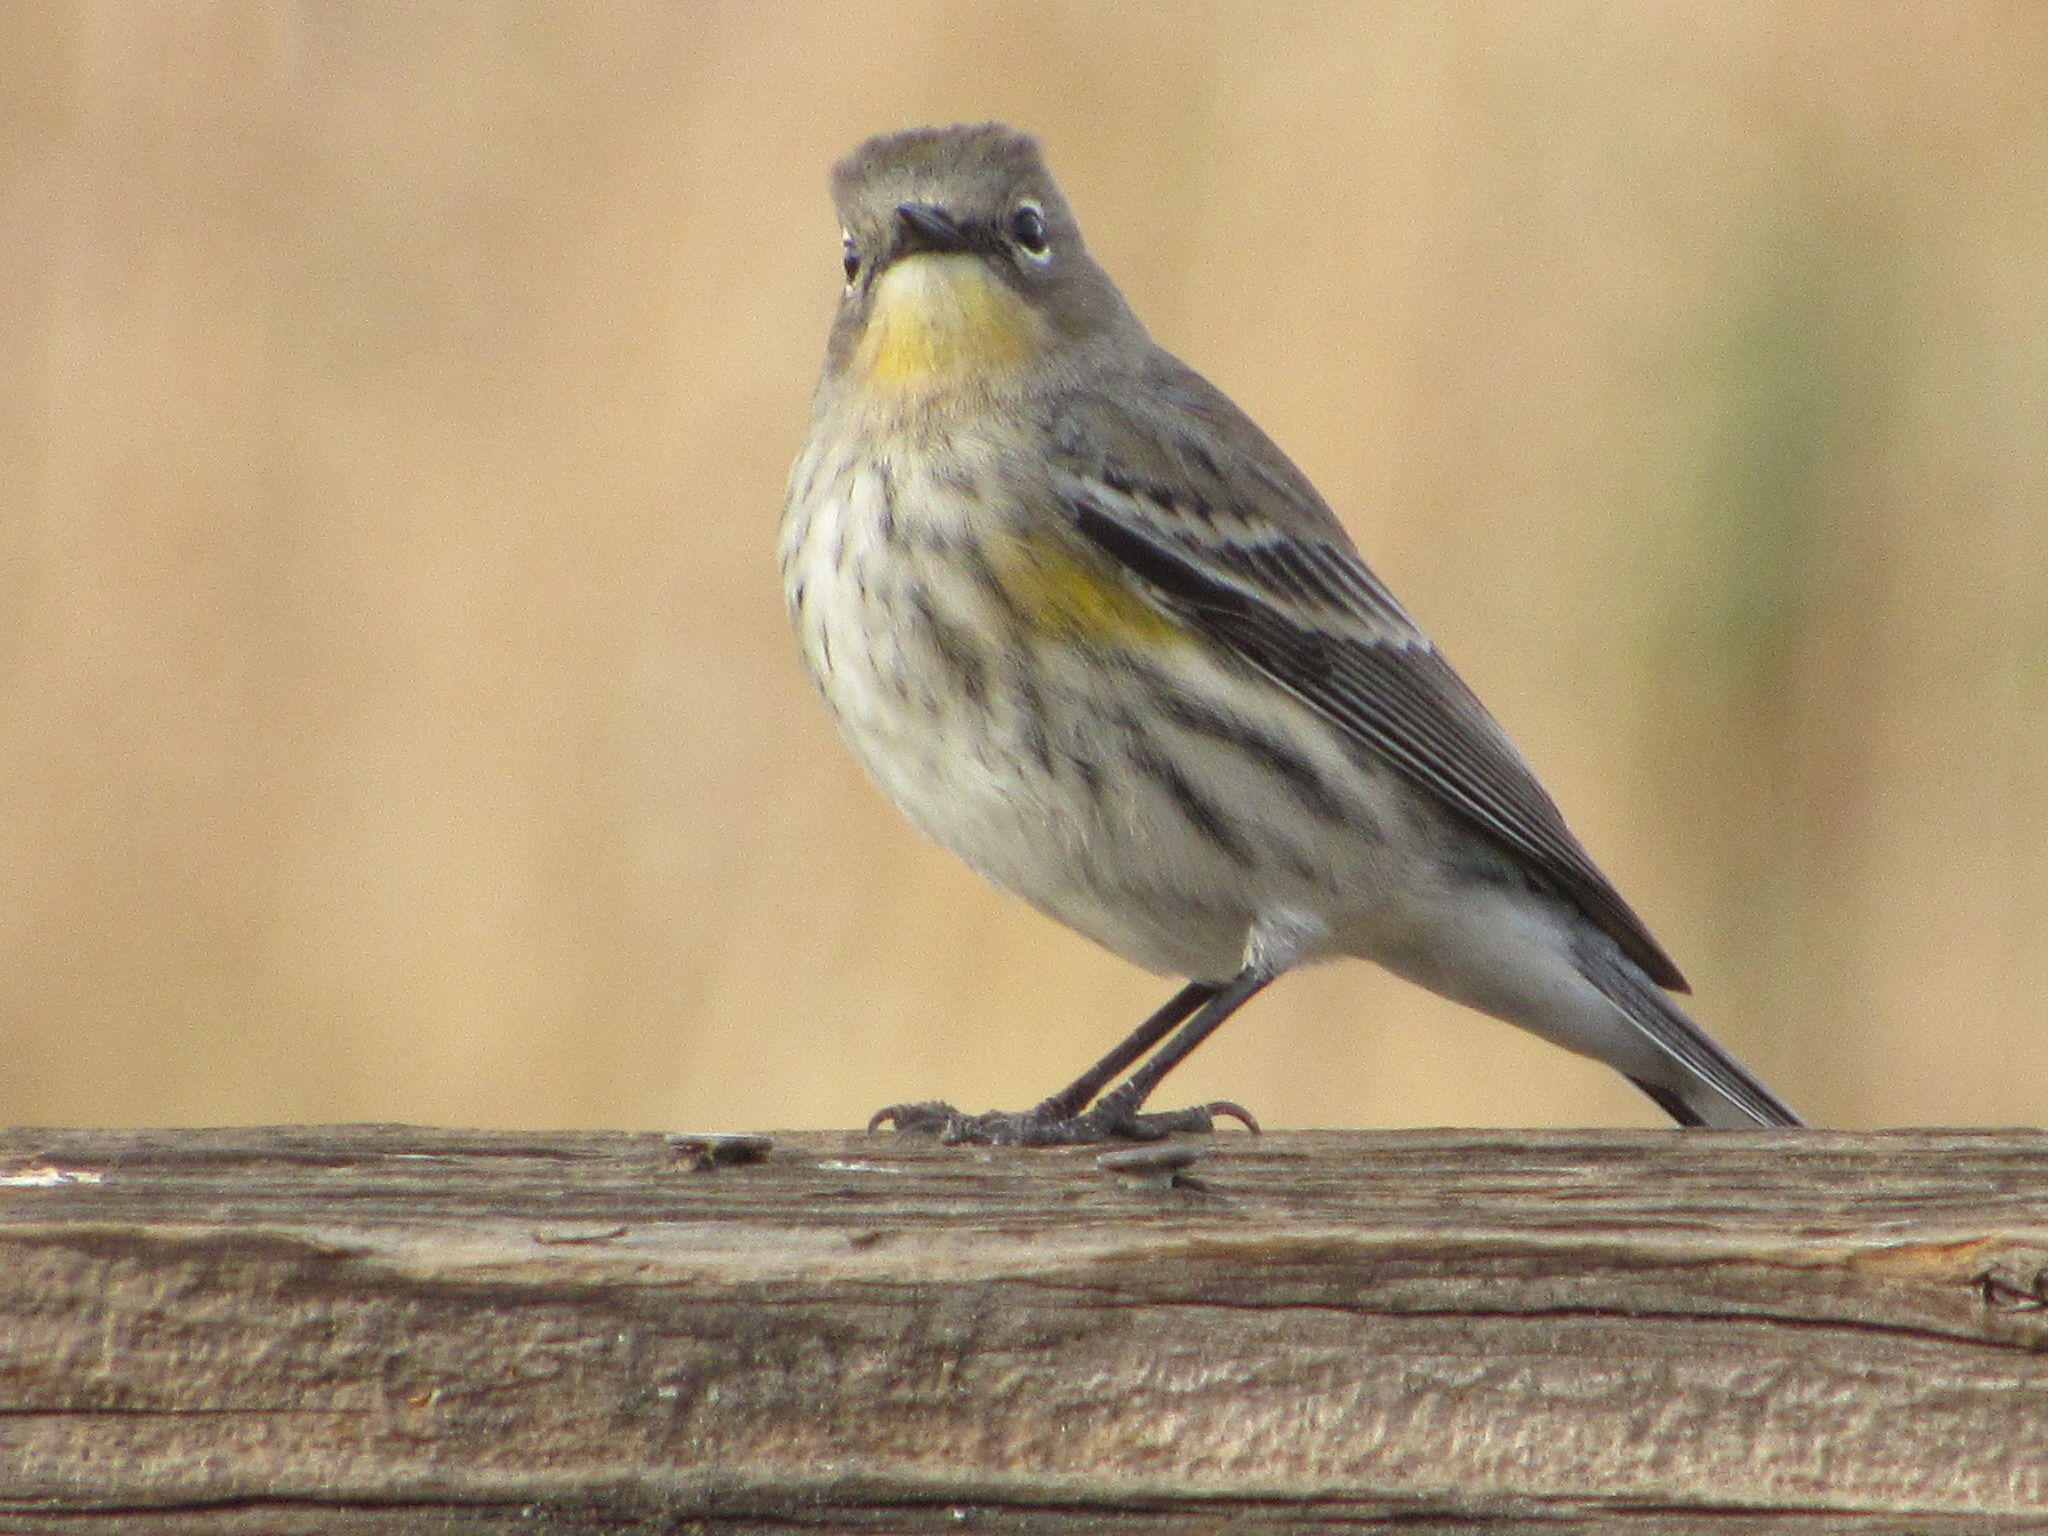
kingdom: Animalia
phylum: Chordata
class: Aves
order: Passeriformes
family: Parulidae
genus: Setophaga
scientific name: Setophaga coronata
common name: Myrtle warbler
